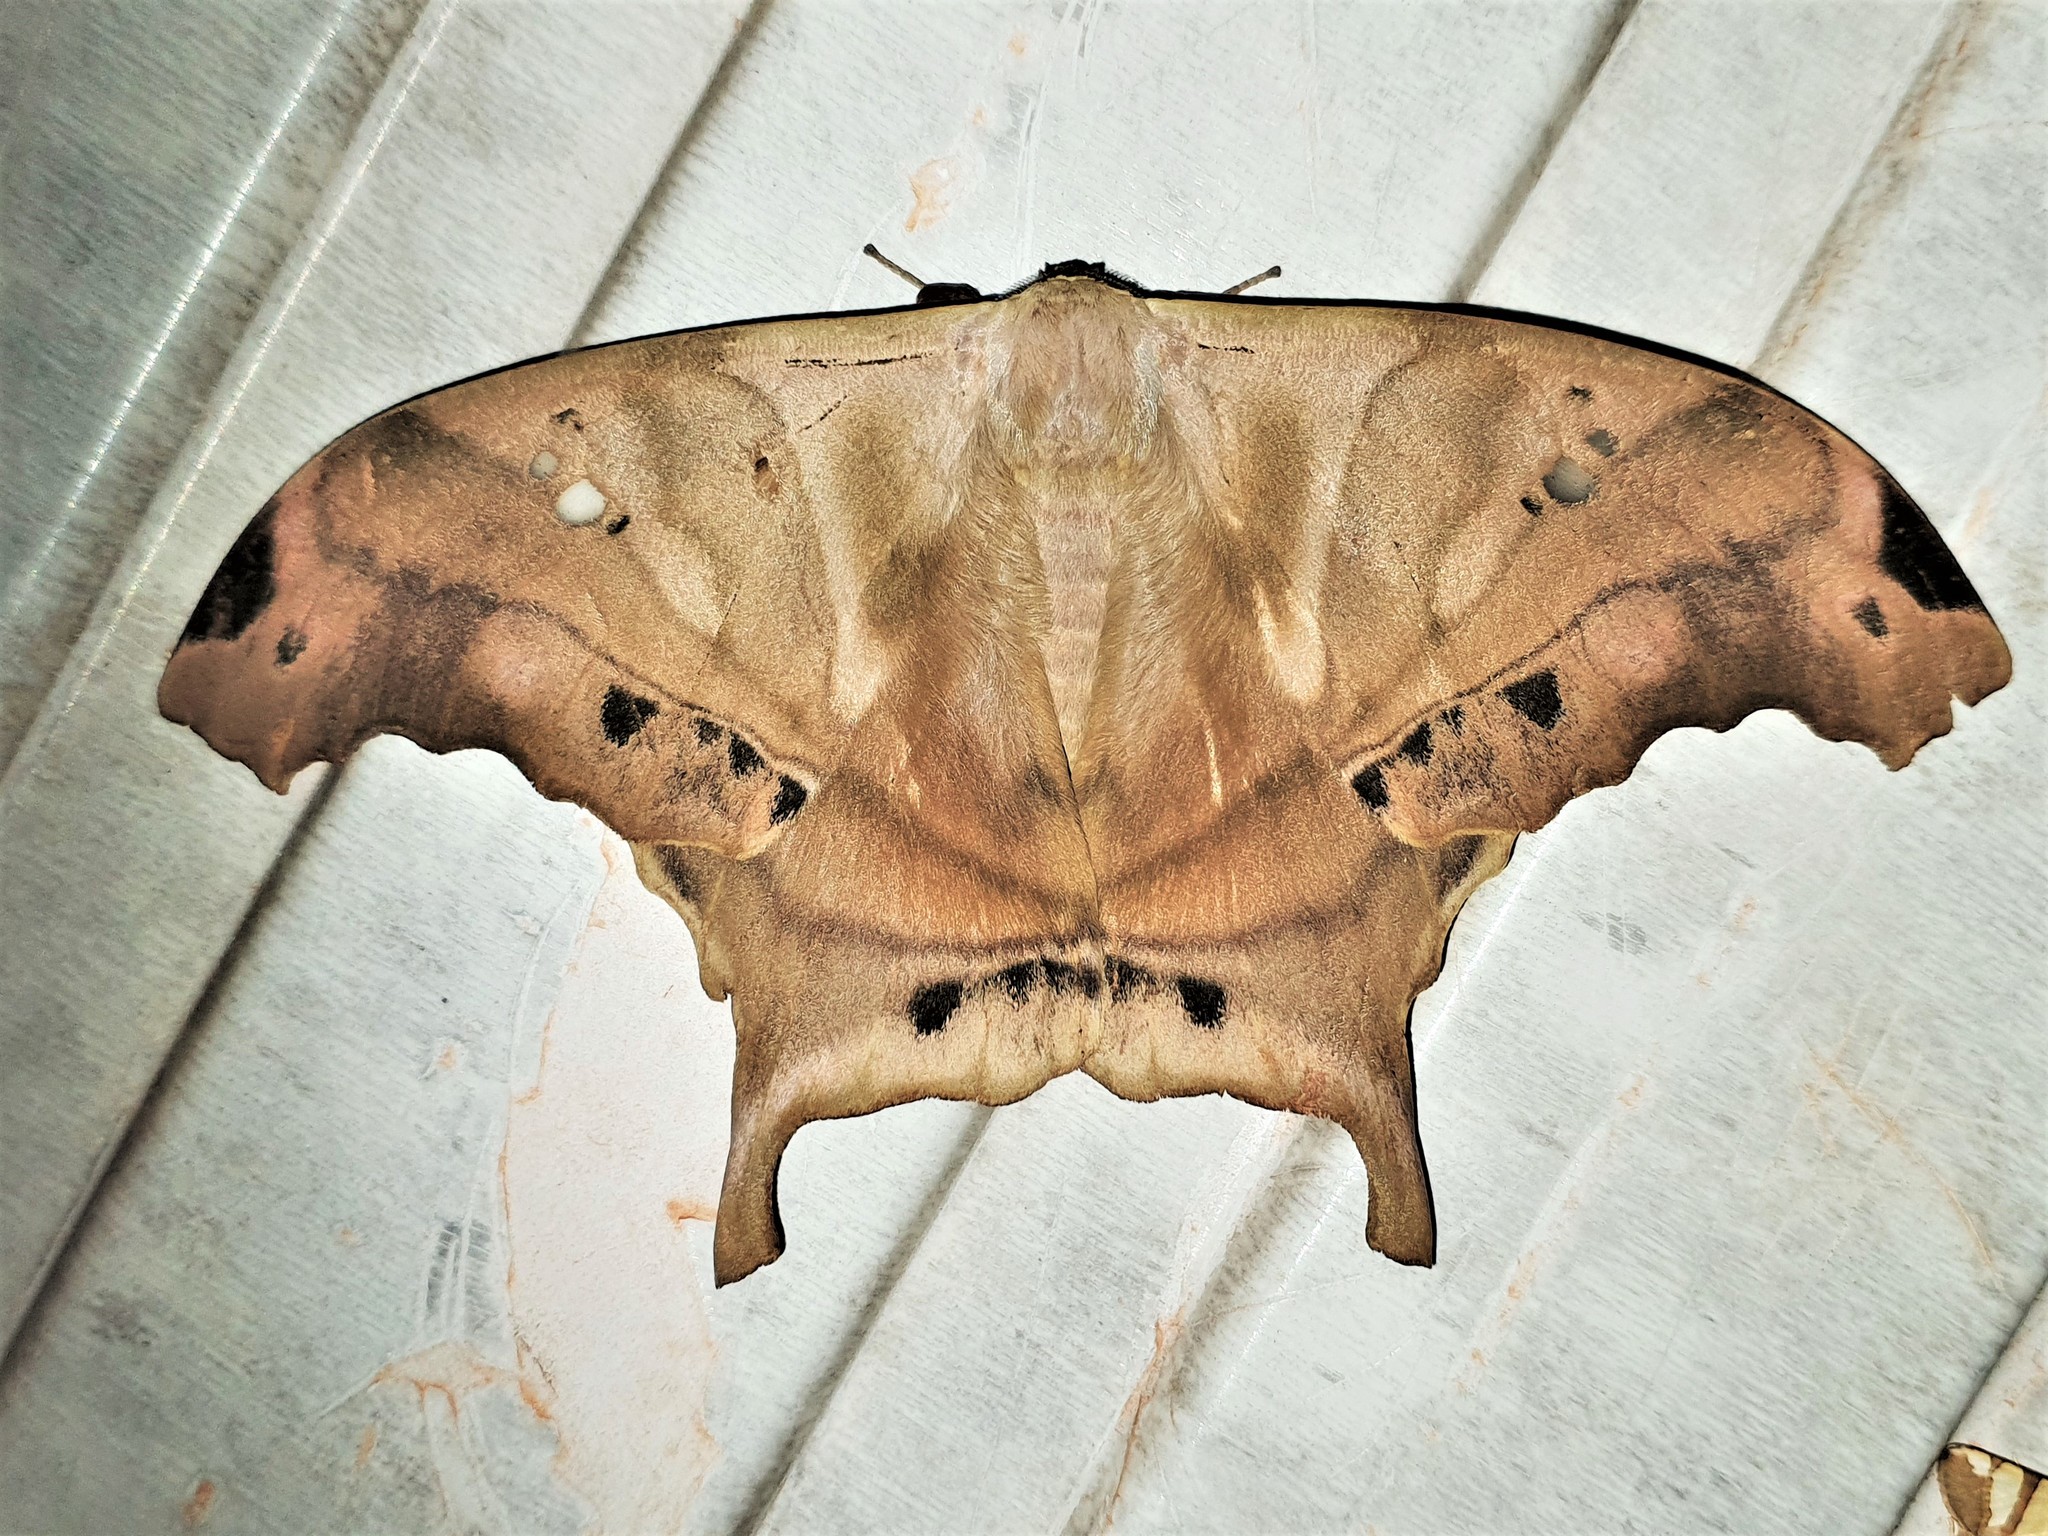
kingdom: Animalia
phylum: Arthropoda
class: Insecta
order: Lepidoptera
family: Saturniidae
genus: Titaea
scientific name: Titaea tamerlan
